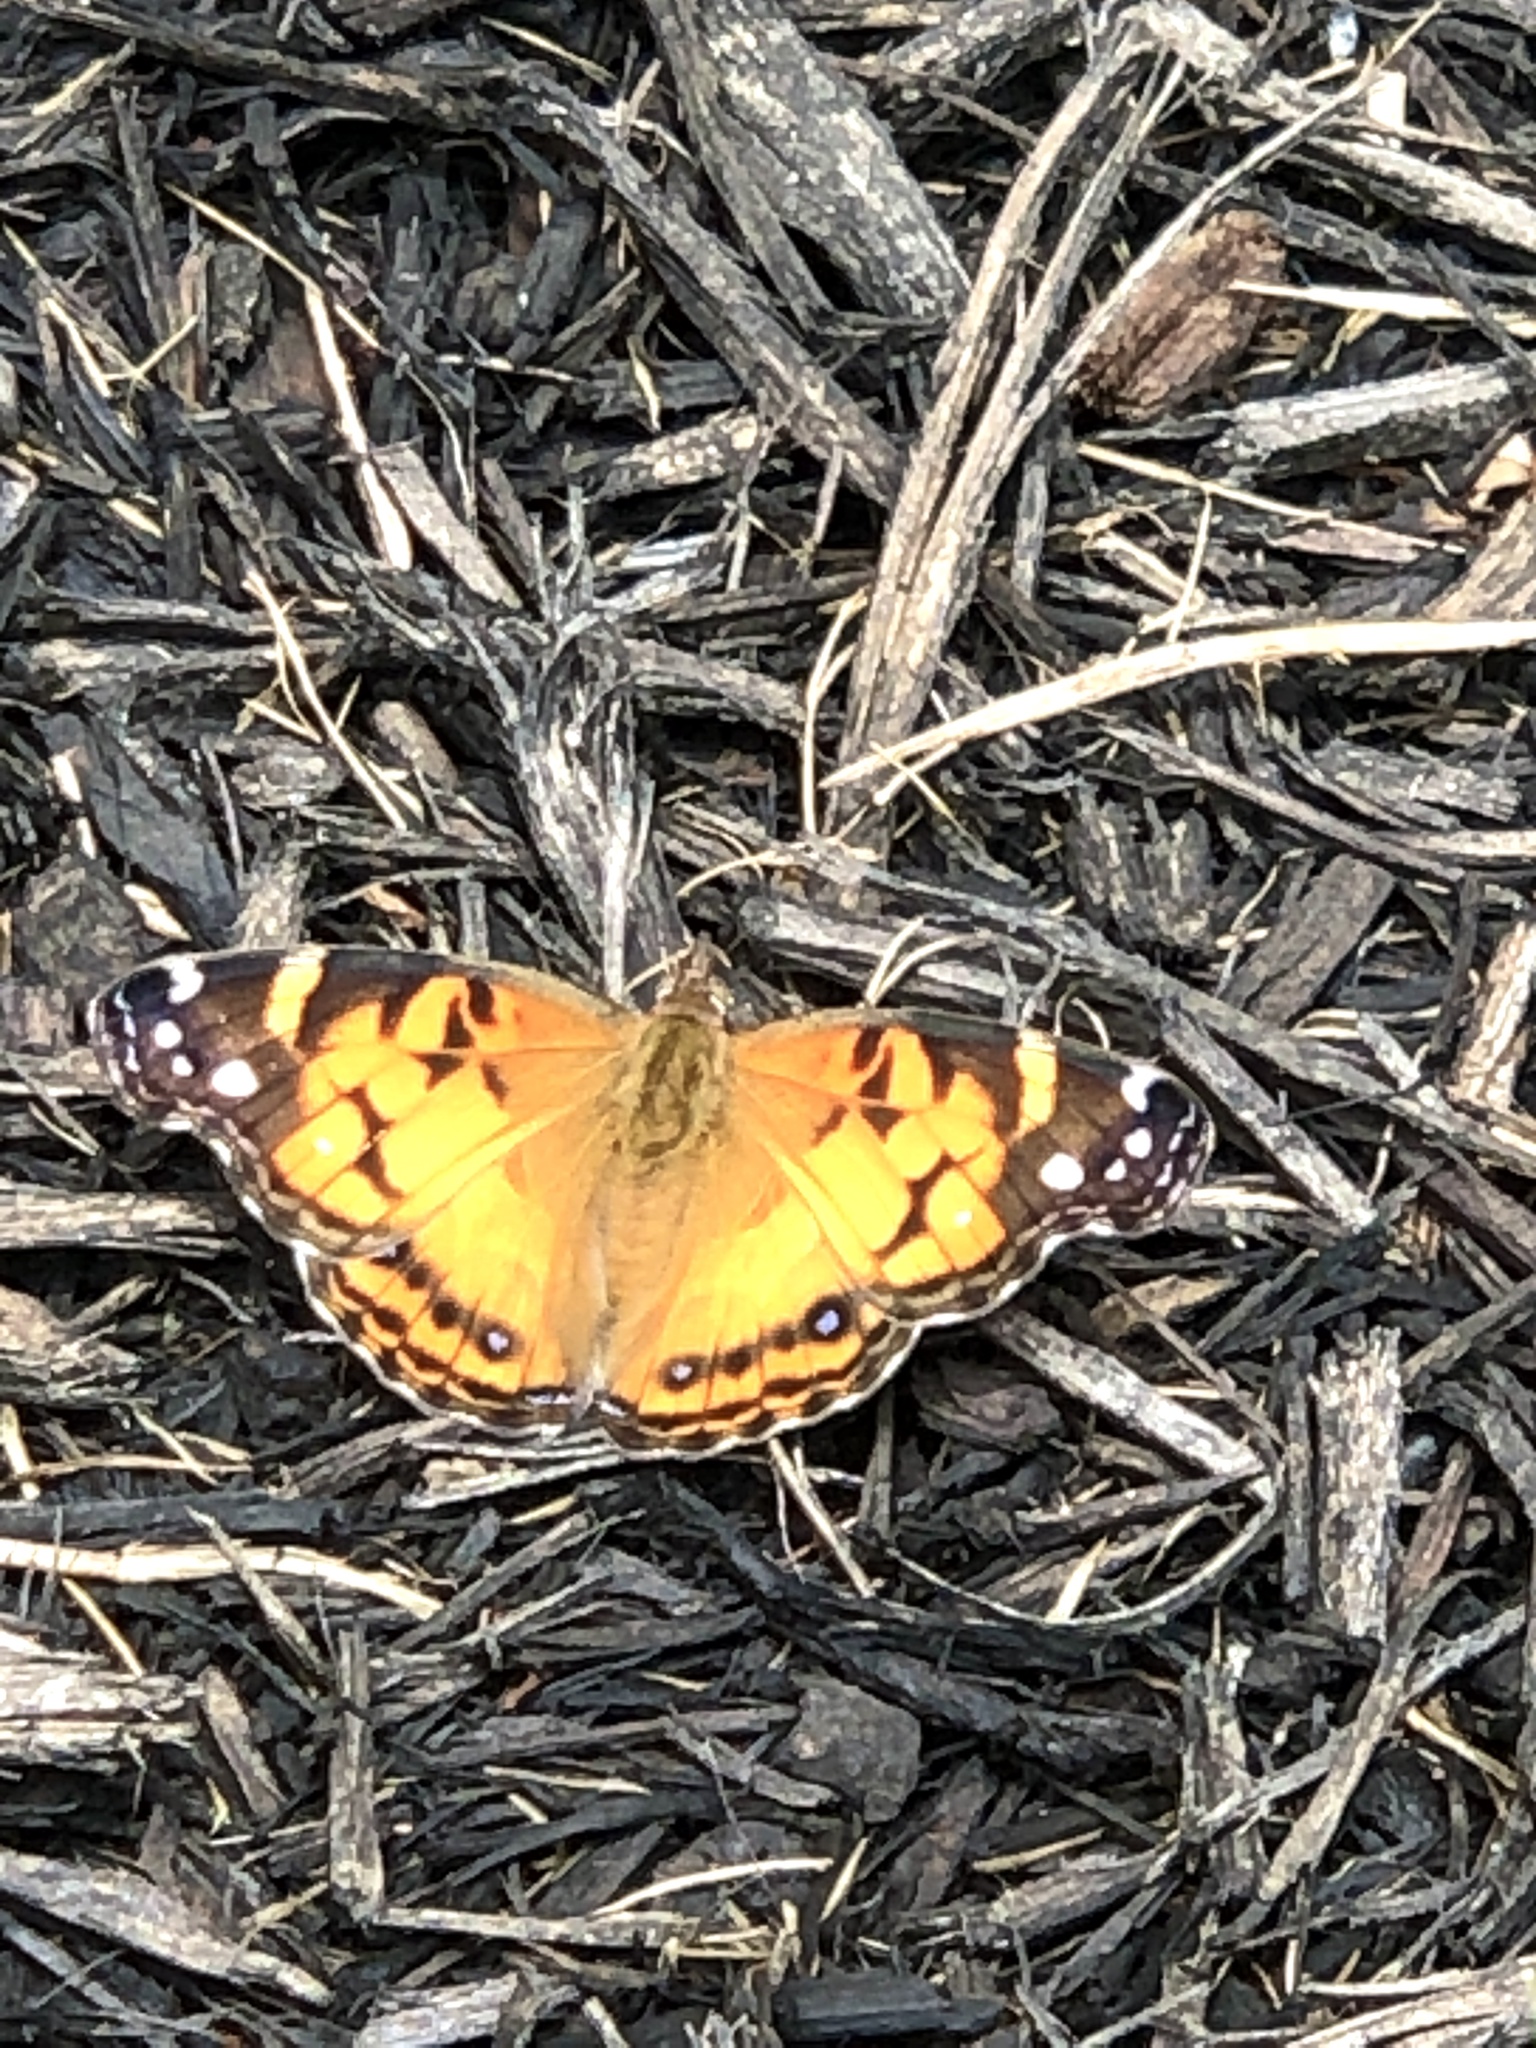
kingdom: Animalia
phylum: Arthropoda
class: Insecta
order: Lepidoptera
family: Nymphalidae
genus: Vanessa
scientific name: Vanessa virginiensis
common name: American lady
